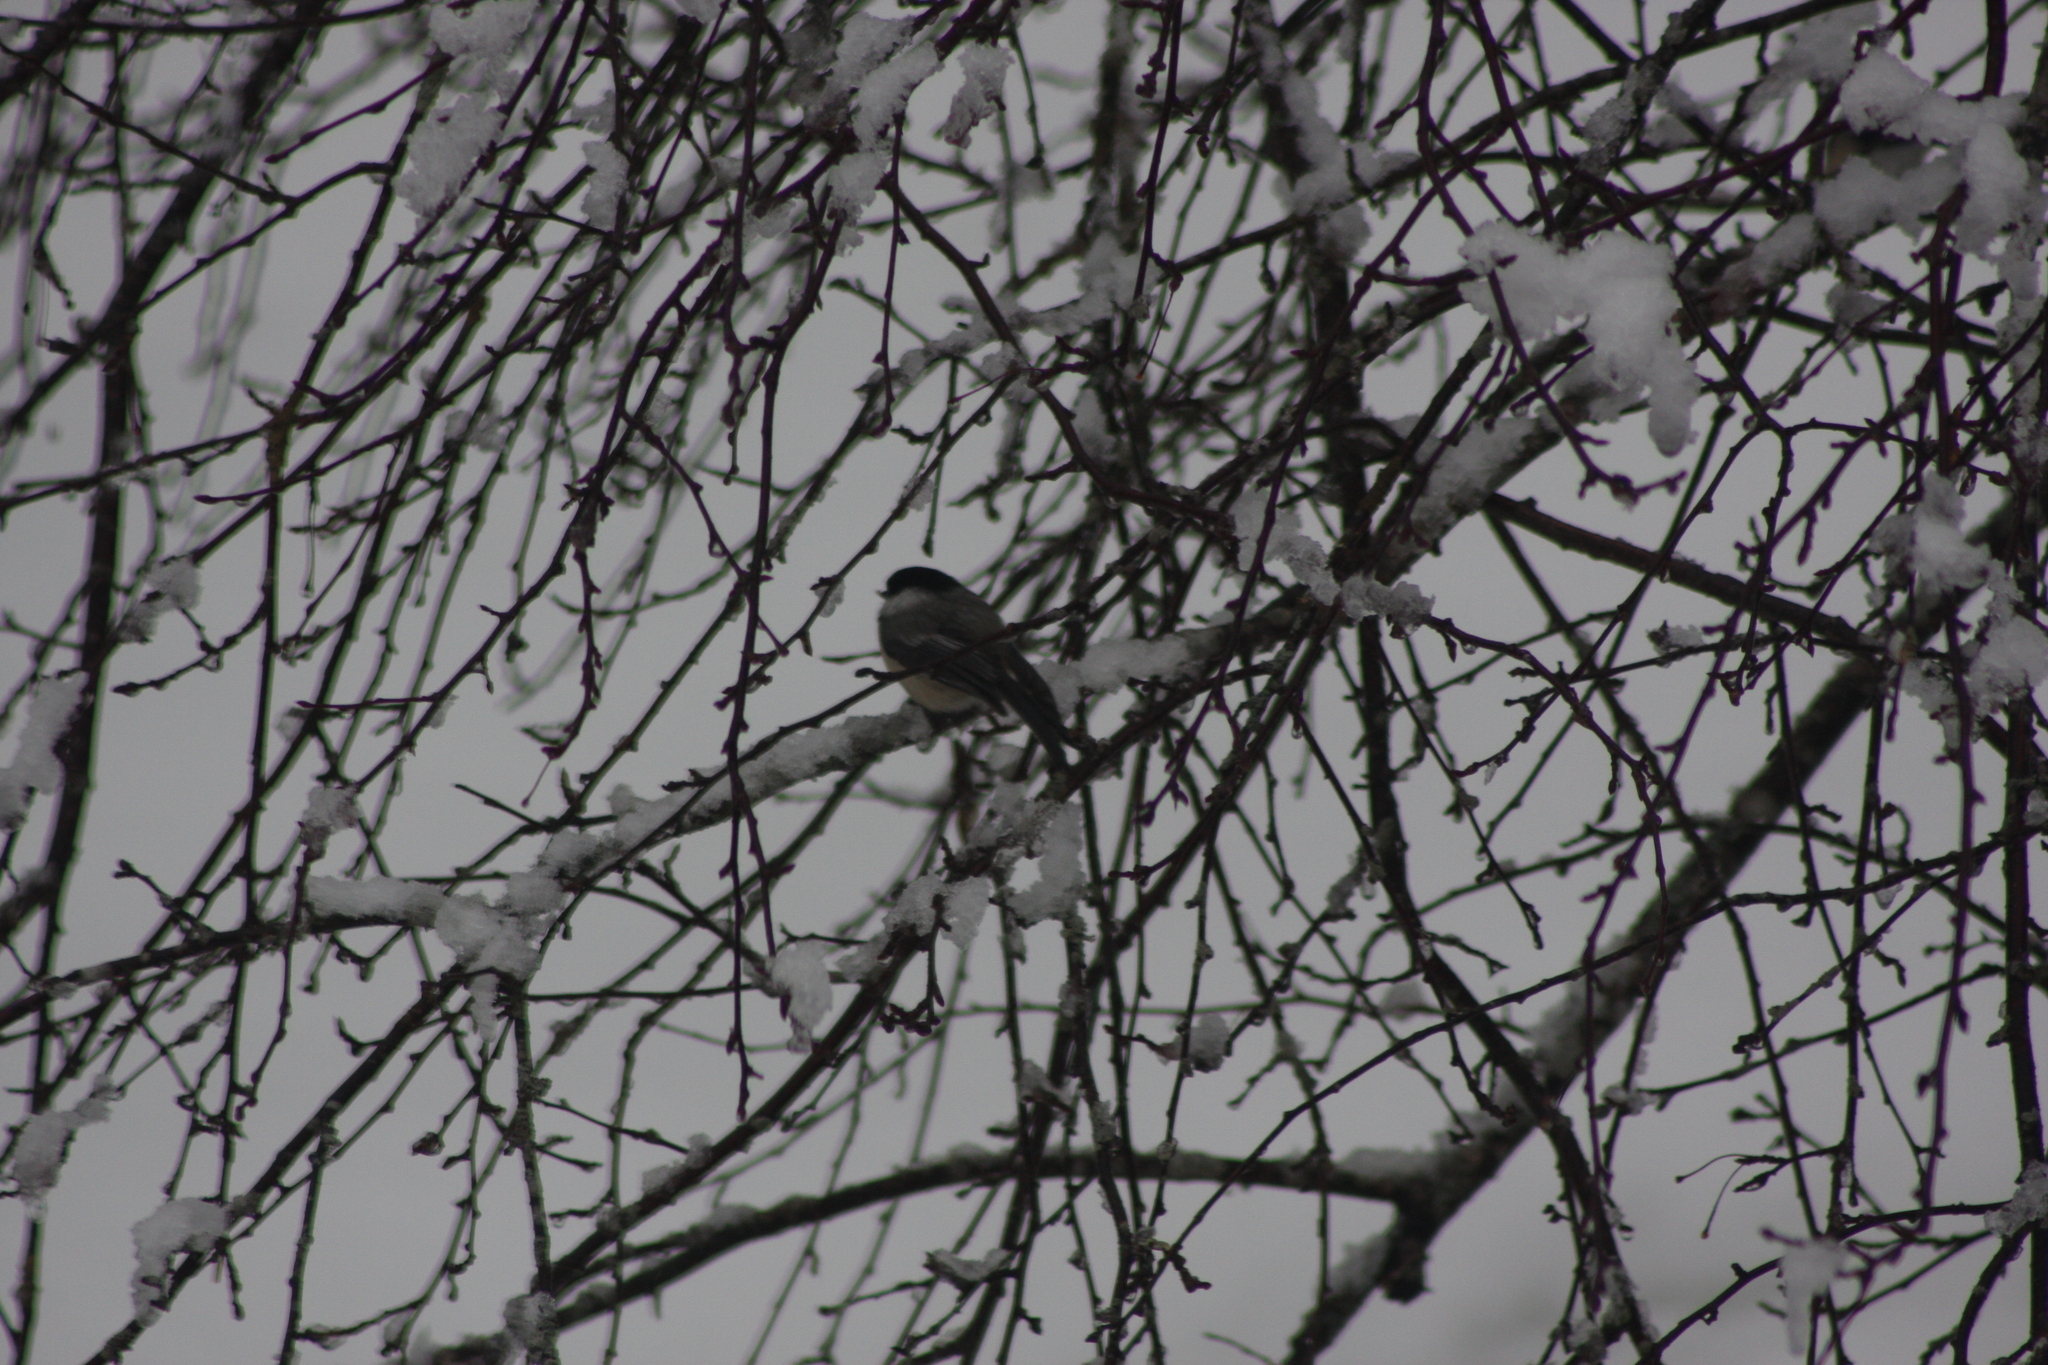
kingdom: Animalia
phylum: Chordata
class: Aves
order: Passeriformes
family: Paridae
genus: Poecile
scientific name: Poecile atricapillus
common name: Black-capped chickadee
